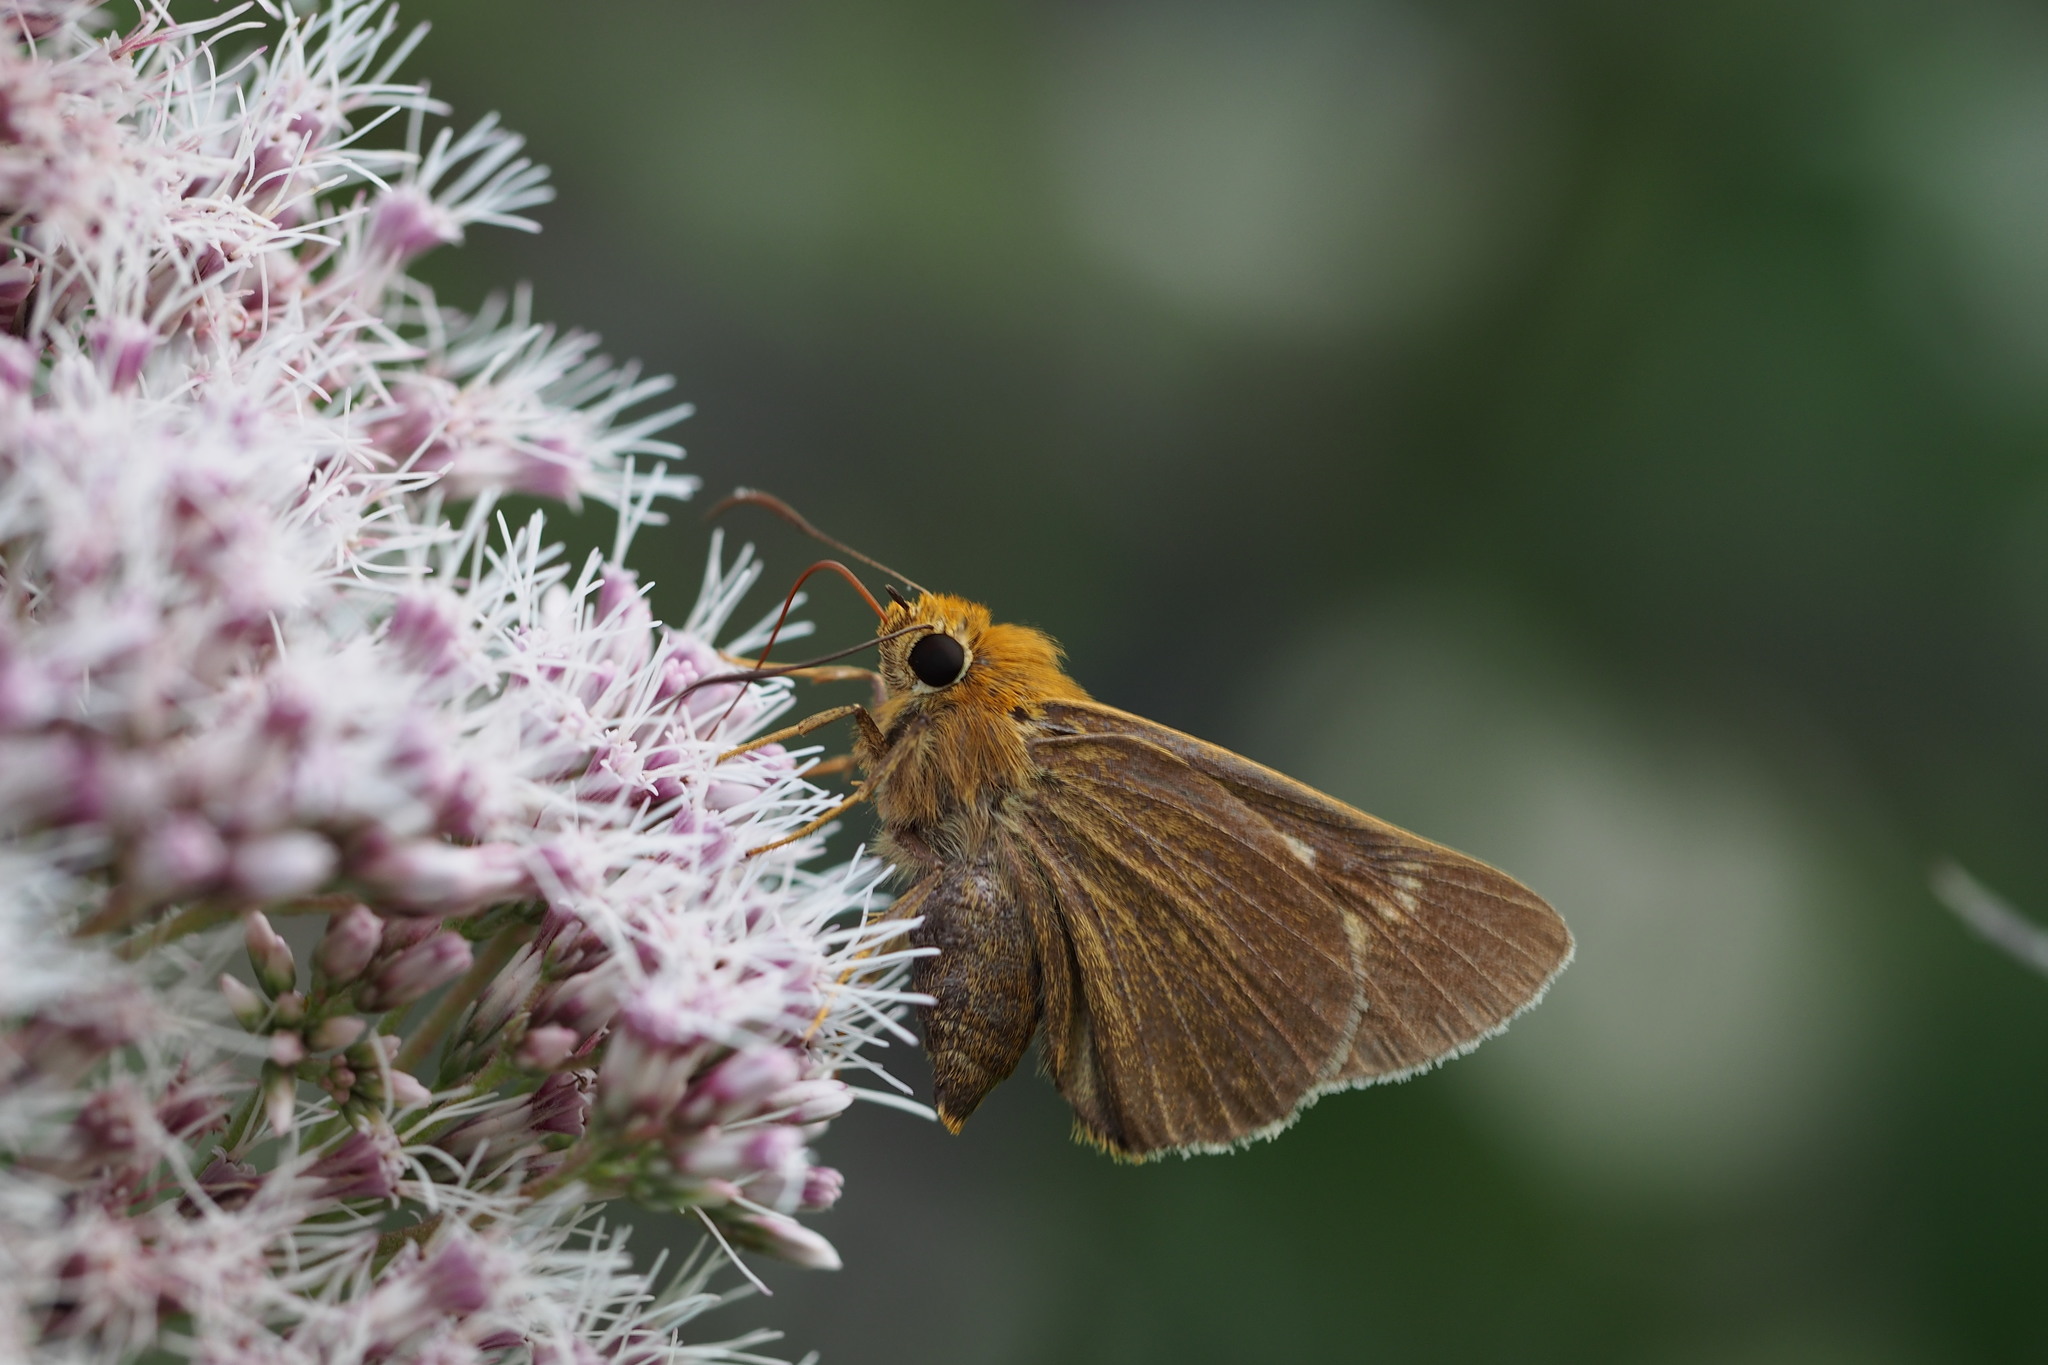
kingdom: Animalia
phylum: Arthropoda
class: Insecta
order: Lepidoptera
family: Hesperiidae
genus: Bibasis
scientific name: Bibasis aquilina
